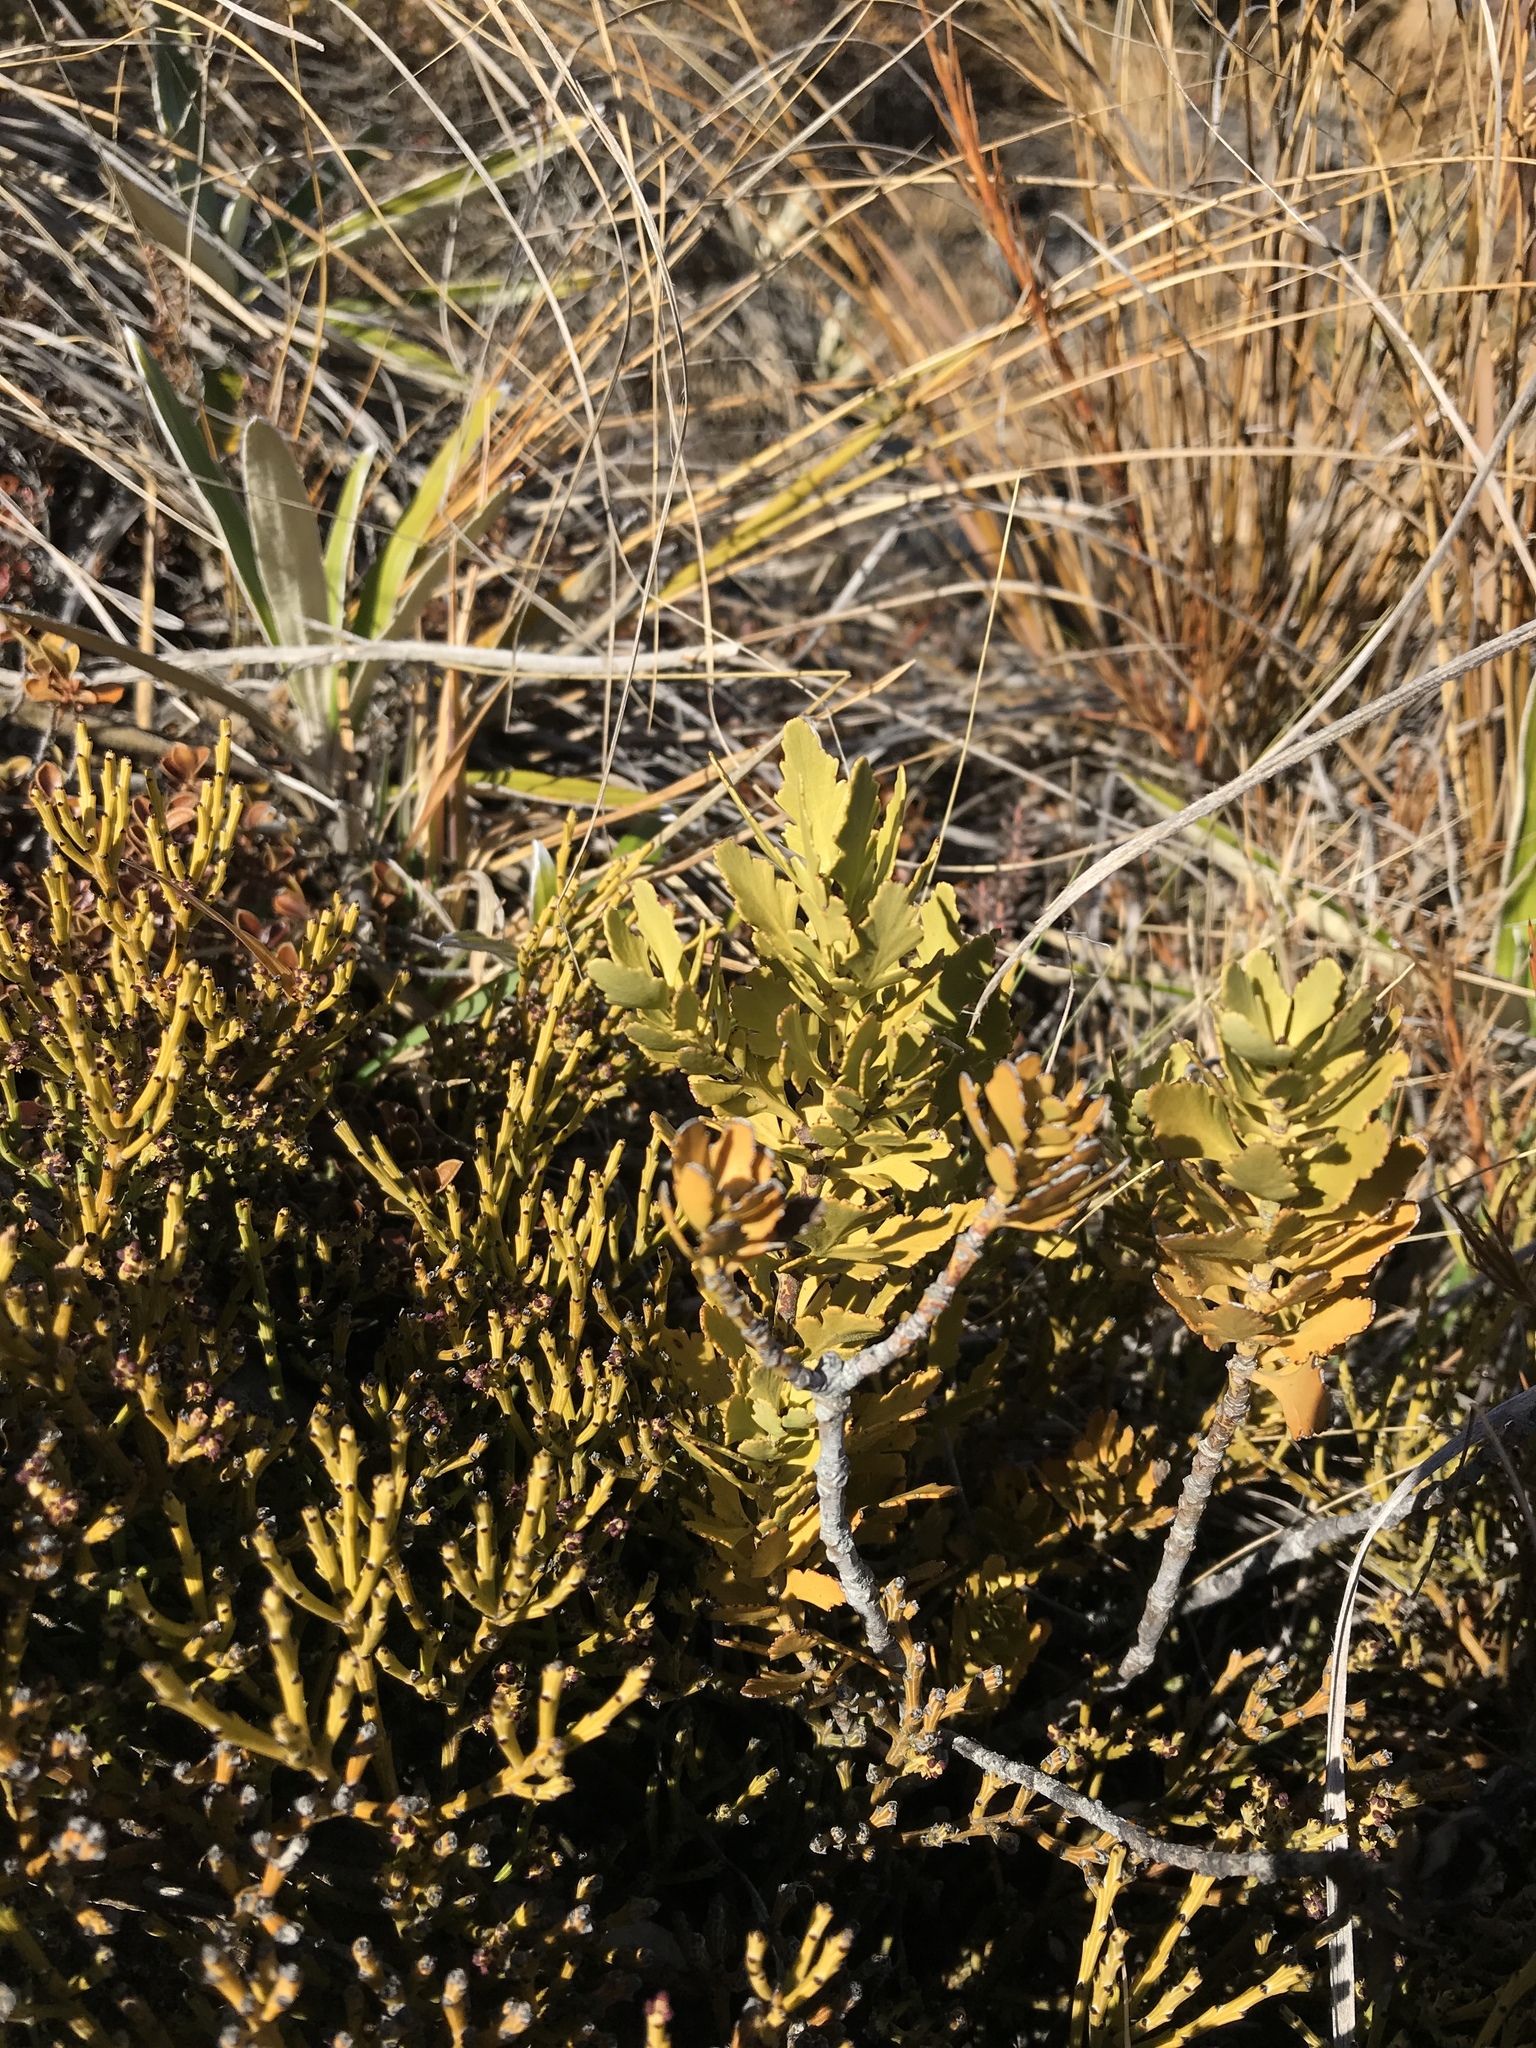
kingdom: Plantae
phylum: Tracheophyta
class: Pinopsida
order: Pinales
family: Phyllocladaceae
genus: Phyllocladus
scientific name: Phyllocladus trichomanoides
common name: Celery pine
